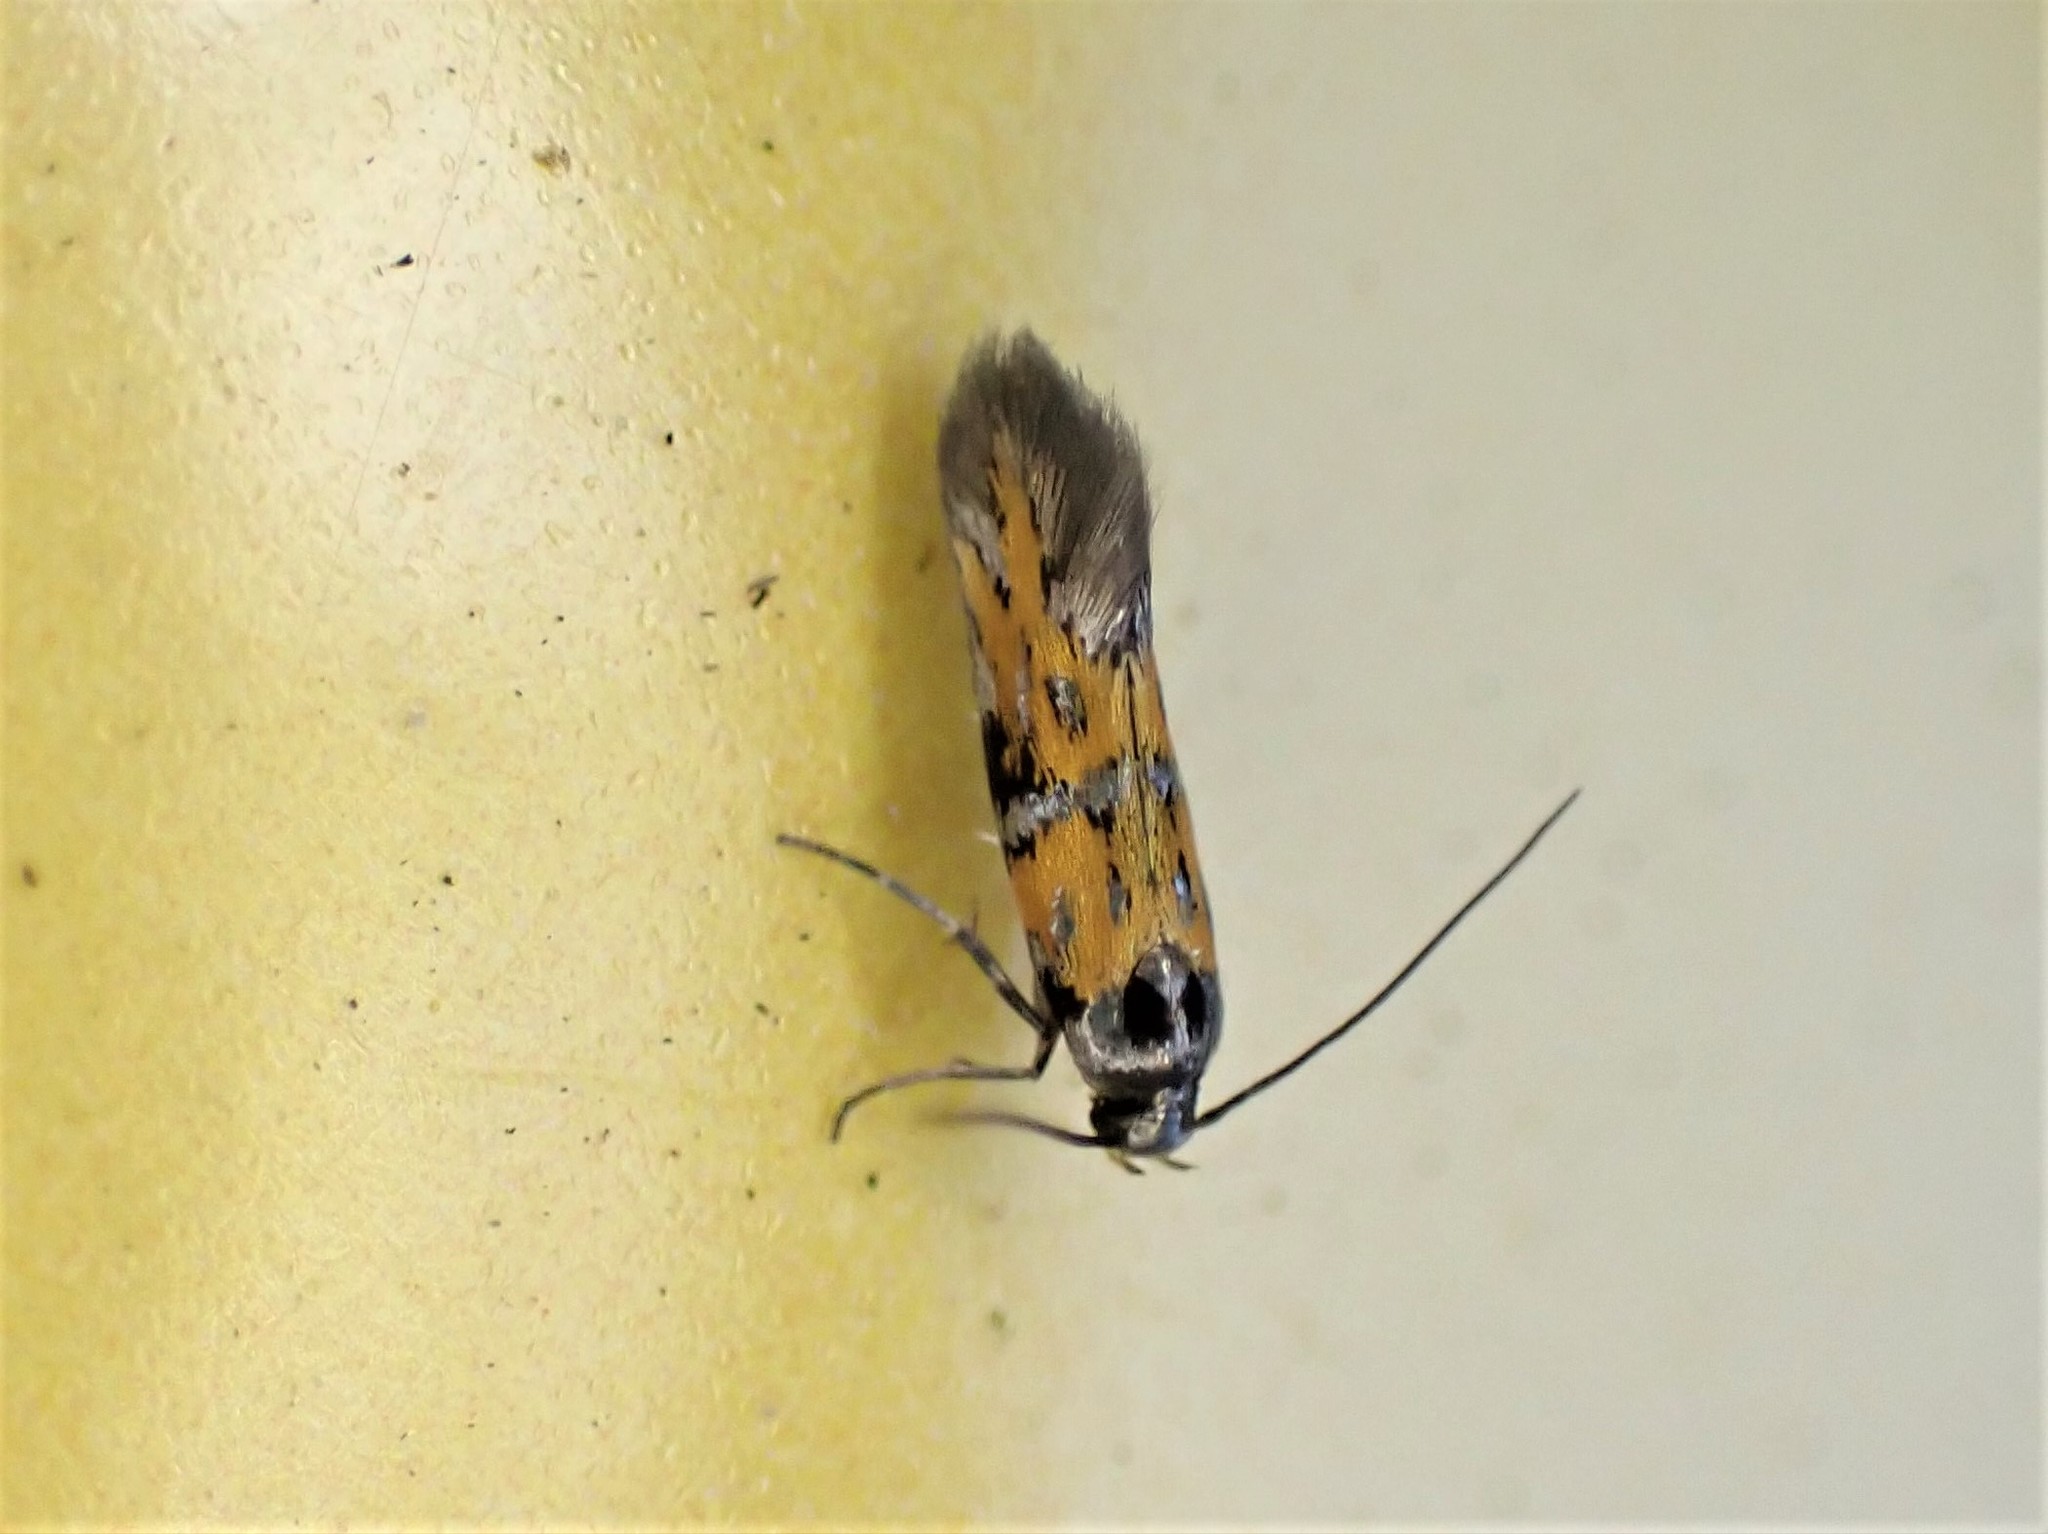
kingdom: Animalia
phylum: Arthropoda
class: Insecta
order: Lepidoptera
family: Gelechiidae
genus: Chrysoesthia
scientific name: Chrysoesthia drurella
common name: Flame neb
